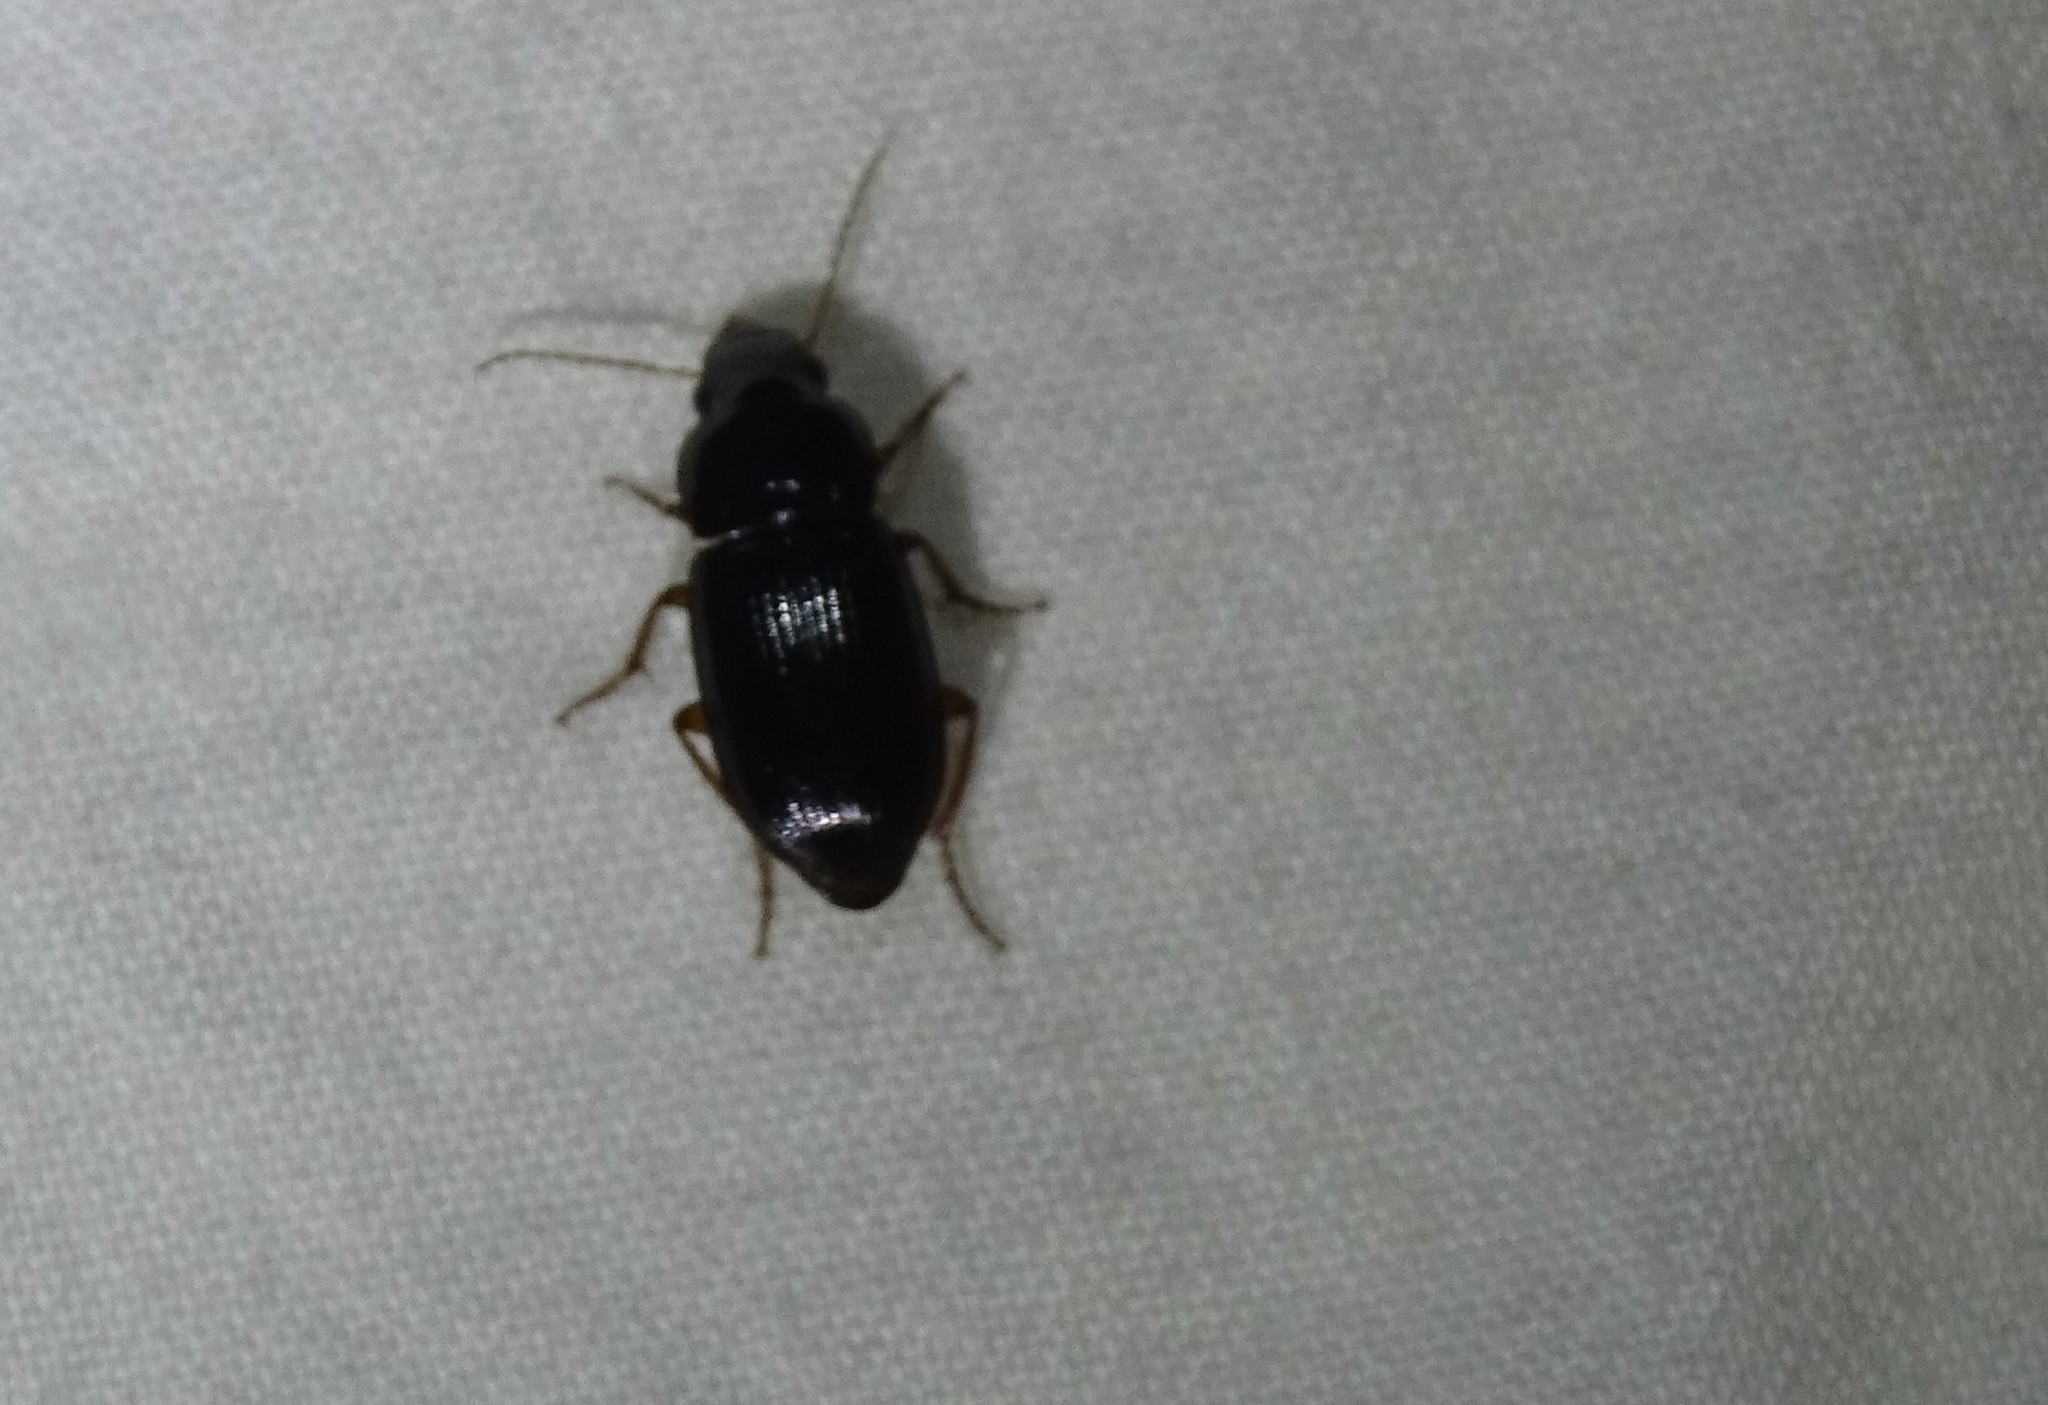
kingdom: Animalia
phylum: Arthropoda
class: Insecta
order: Coleoptera
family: Carabidae
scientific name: Carabidae
